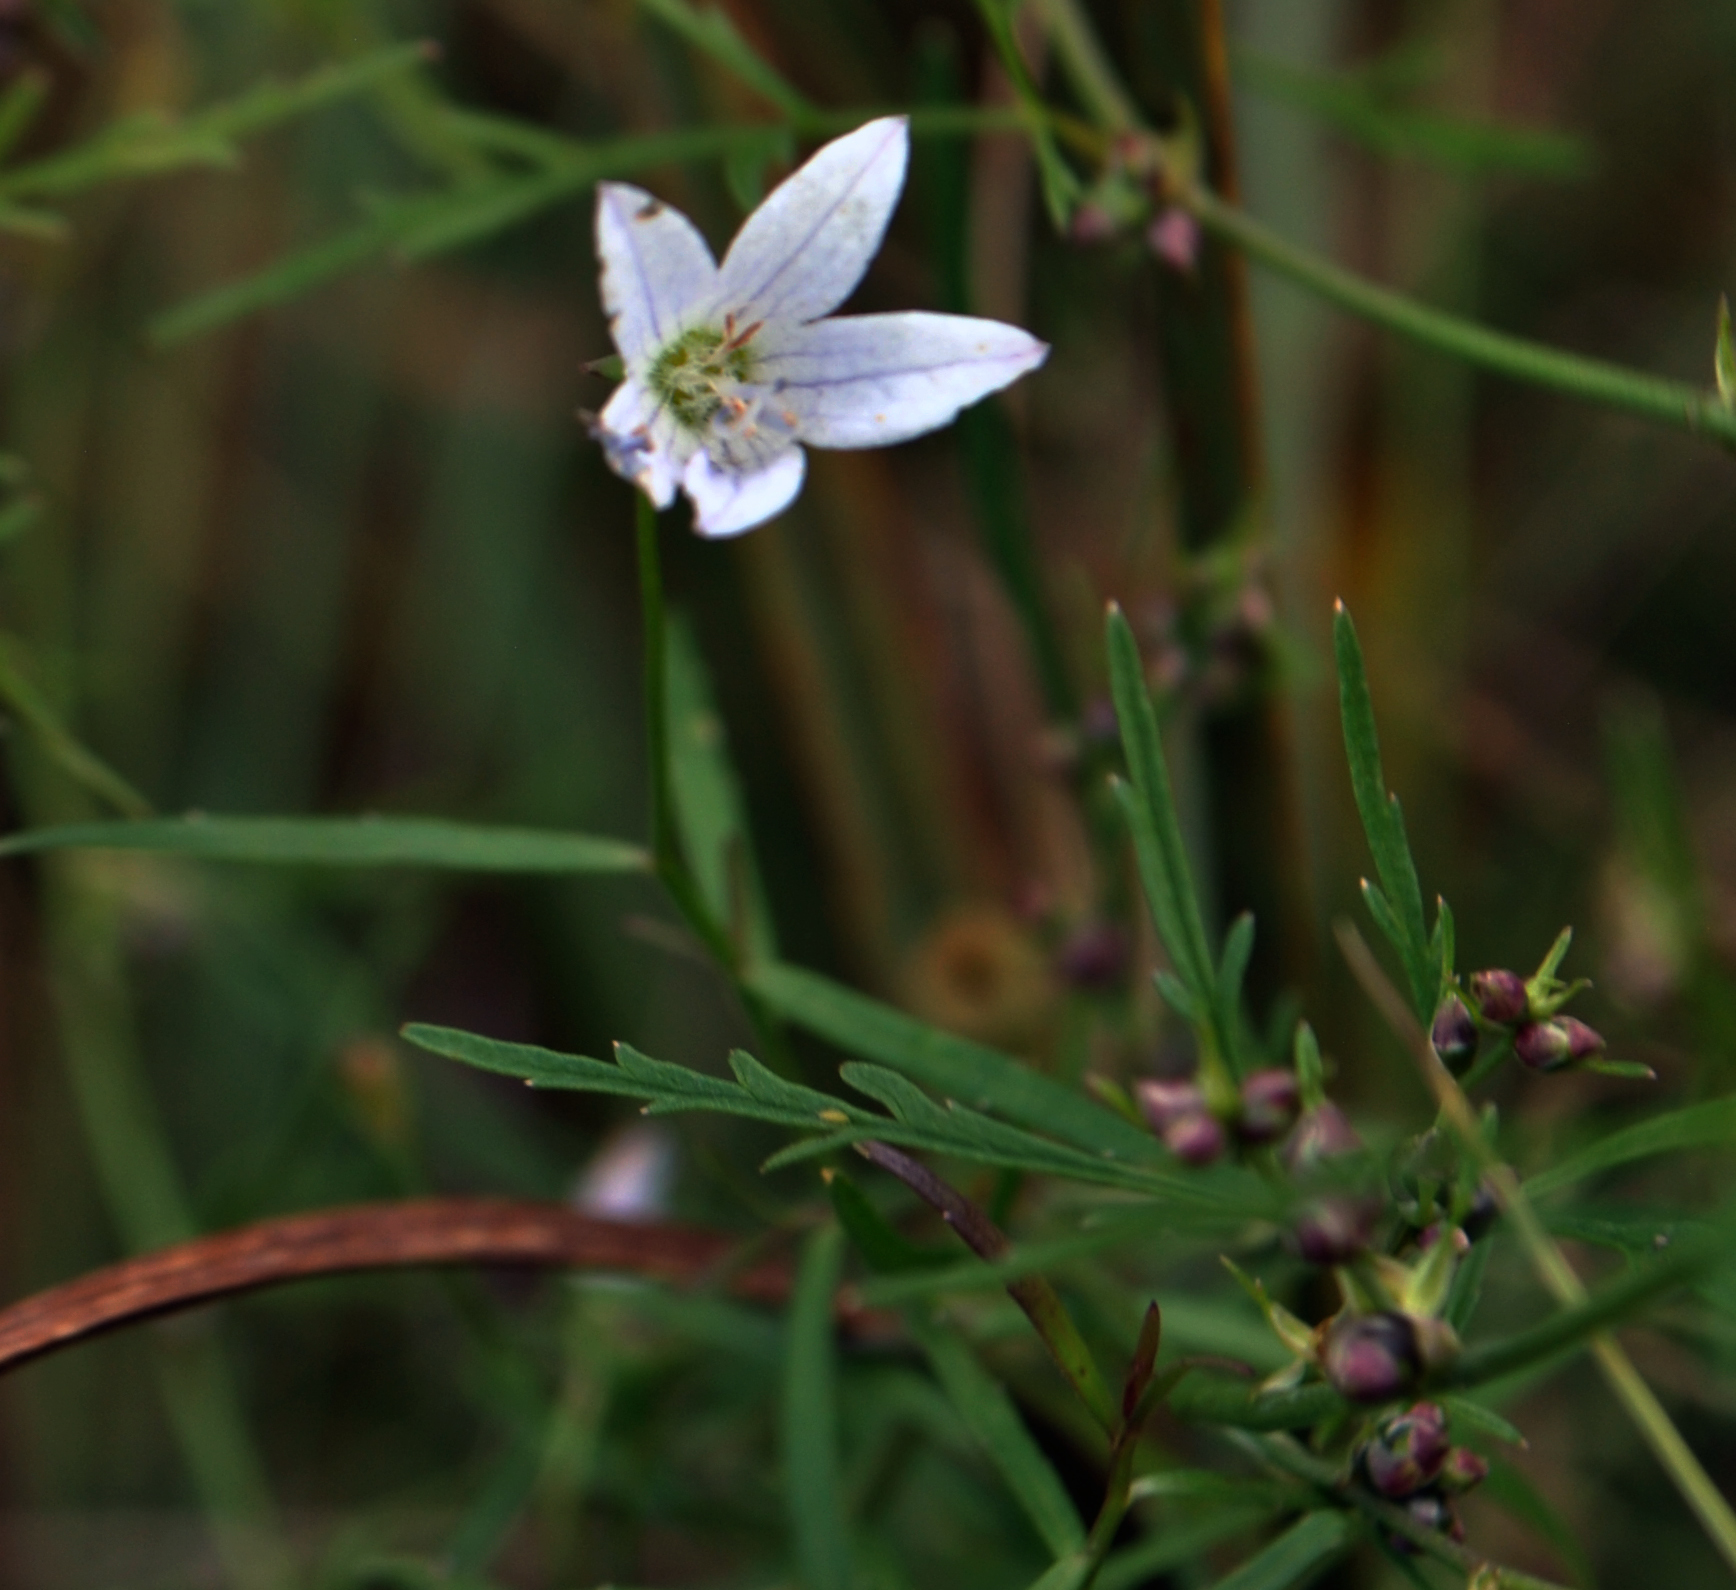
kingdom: Plantae
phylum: Tracheophyta
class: Magnoliopsida
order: Asterales
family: Campanulaceae
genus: Palustricodon
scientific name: Palustricodon aparinoides
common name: Bedstraw bellflower
